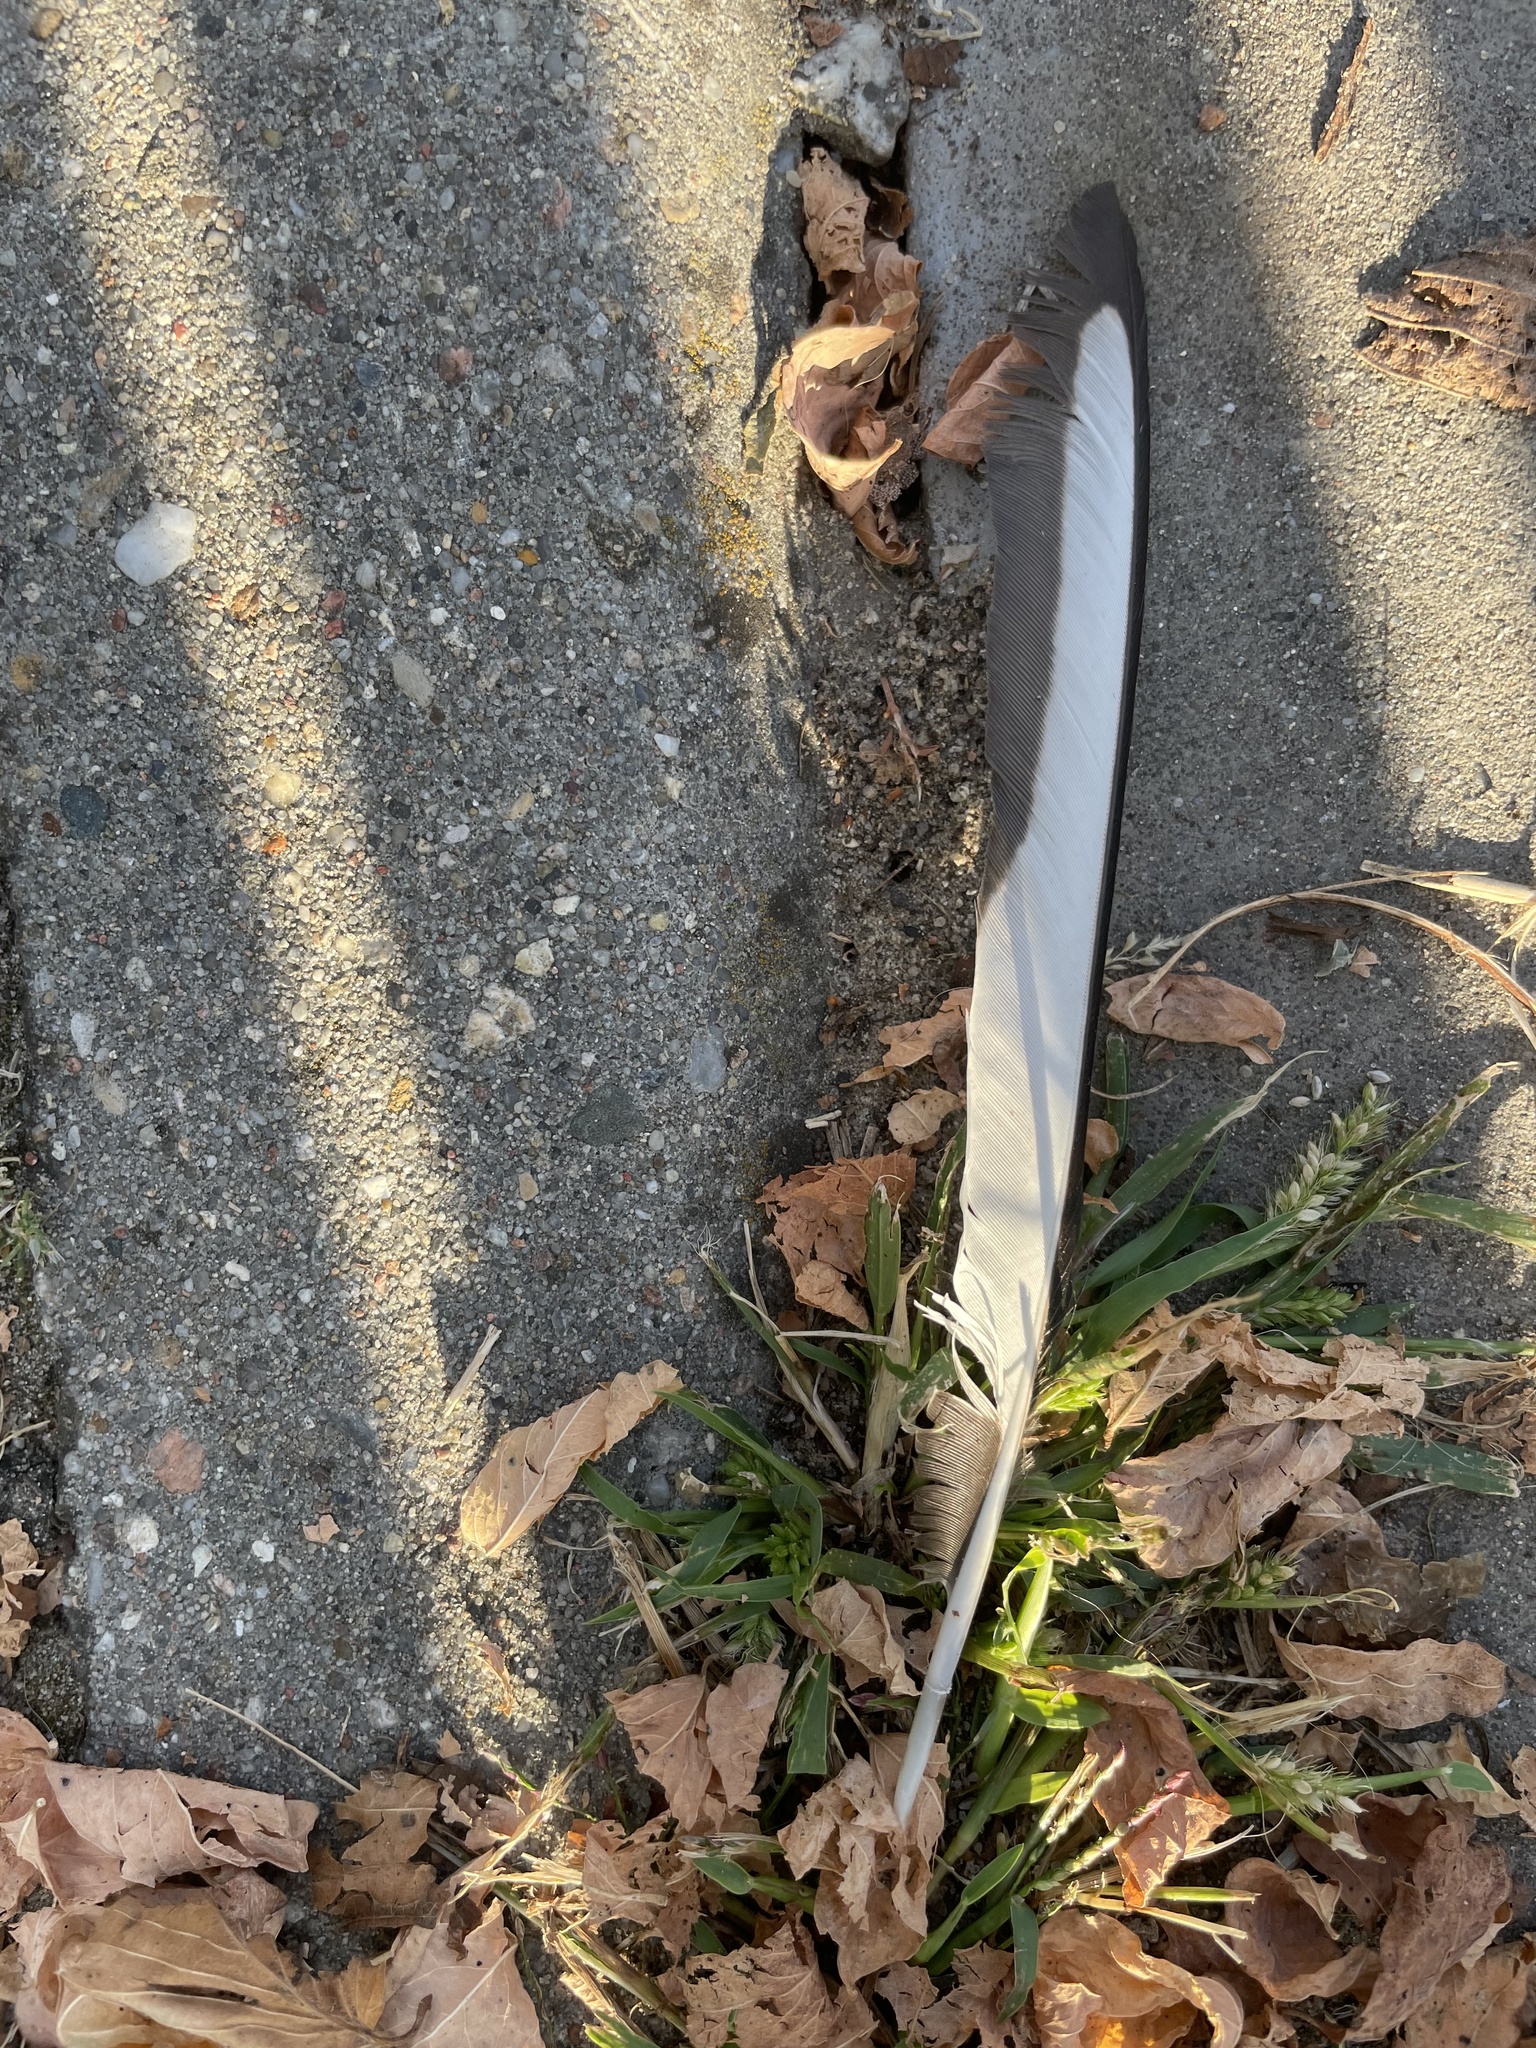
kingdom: Animalia
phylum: Chordata
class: Aves
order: Passeriformes
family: Corvidae
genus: Pica
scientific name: Pica pica
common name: Eurasian magpie
